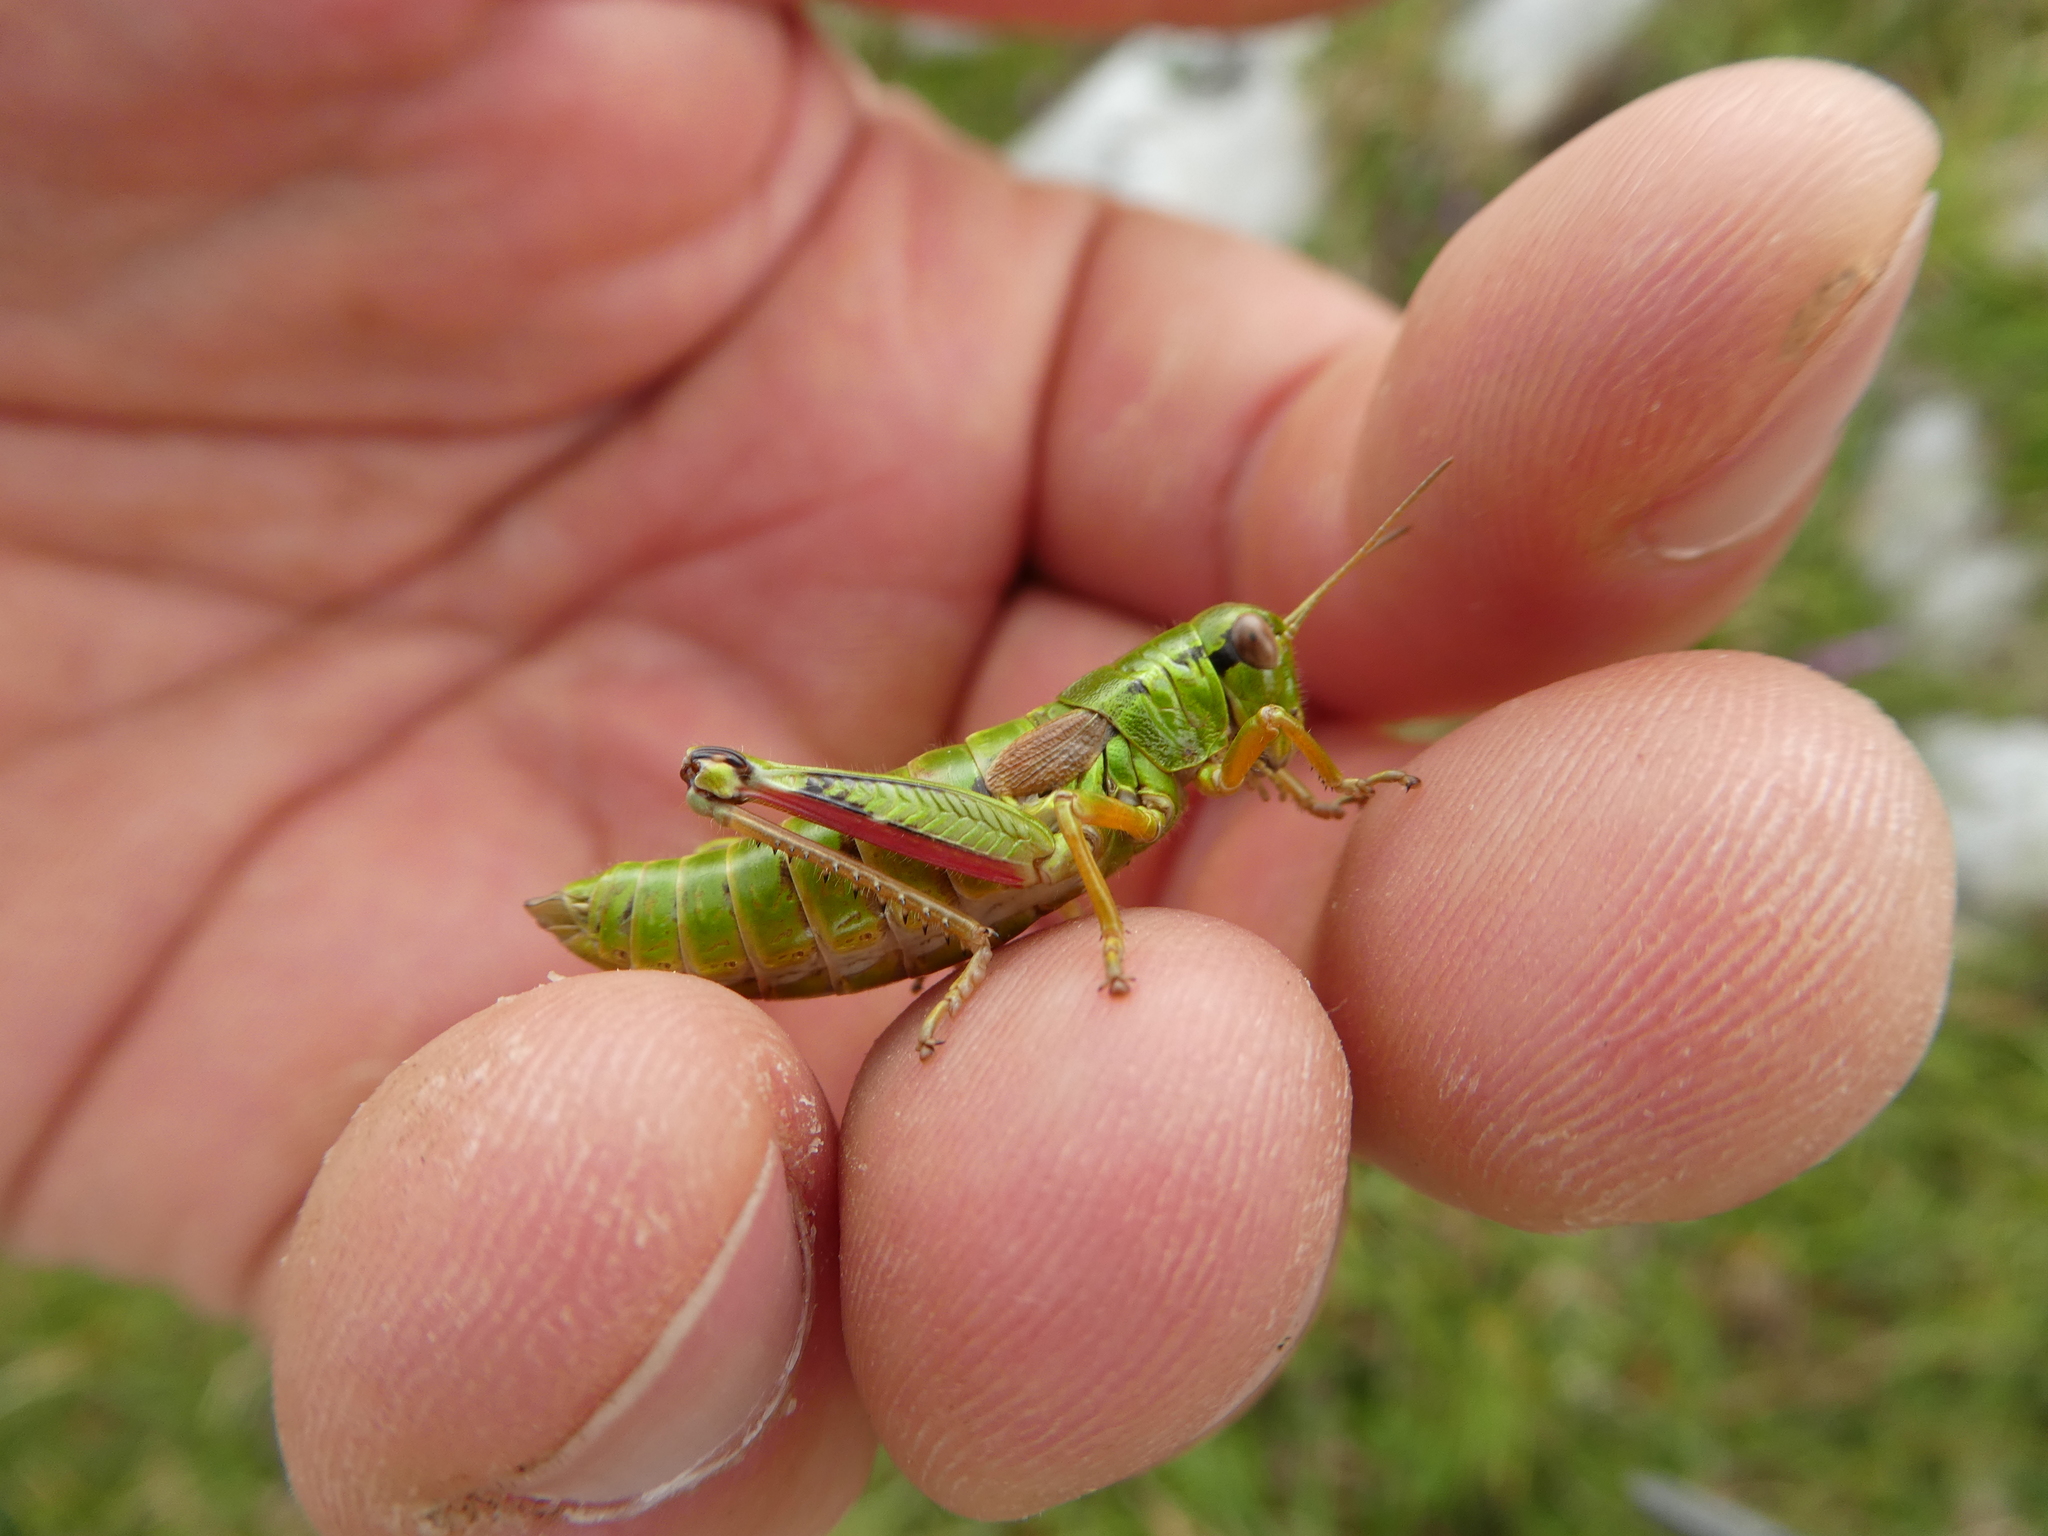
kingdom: Animalia
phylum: Arthropoda
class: Insecta
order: Orthoptera
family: Acrididae
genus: Miramella
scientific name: Miramella alpina
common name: Green mountain grasshopper
